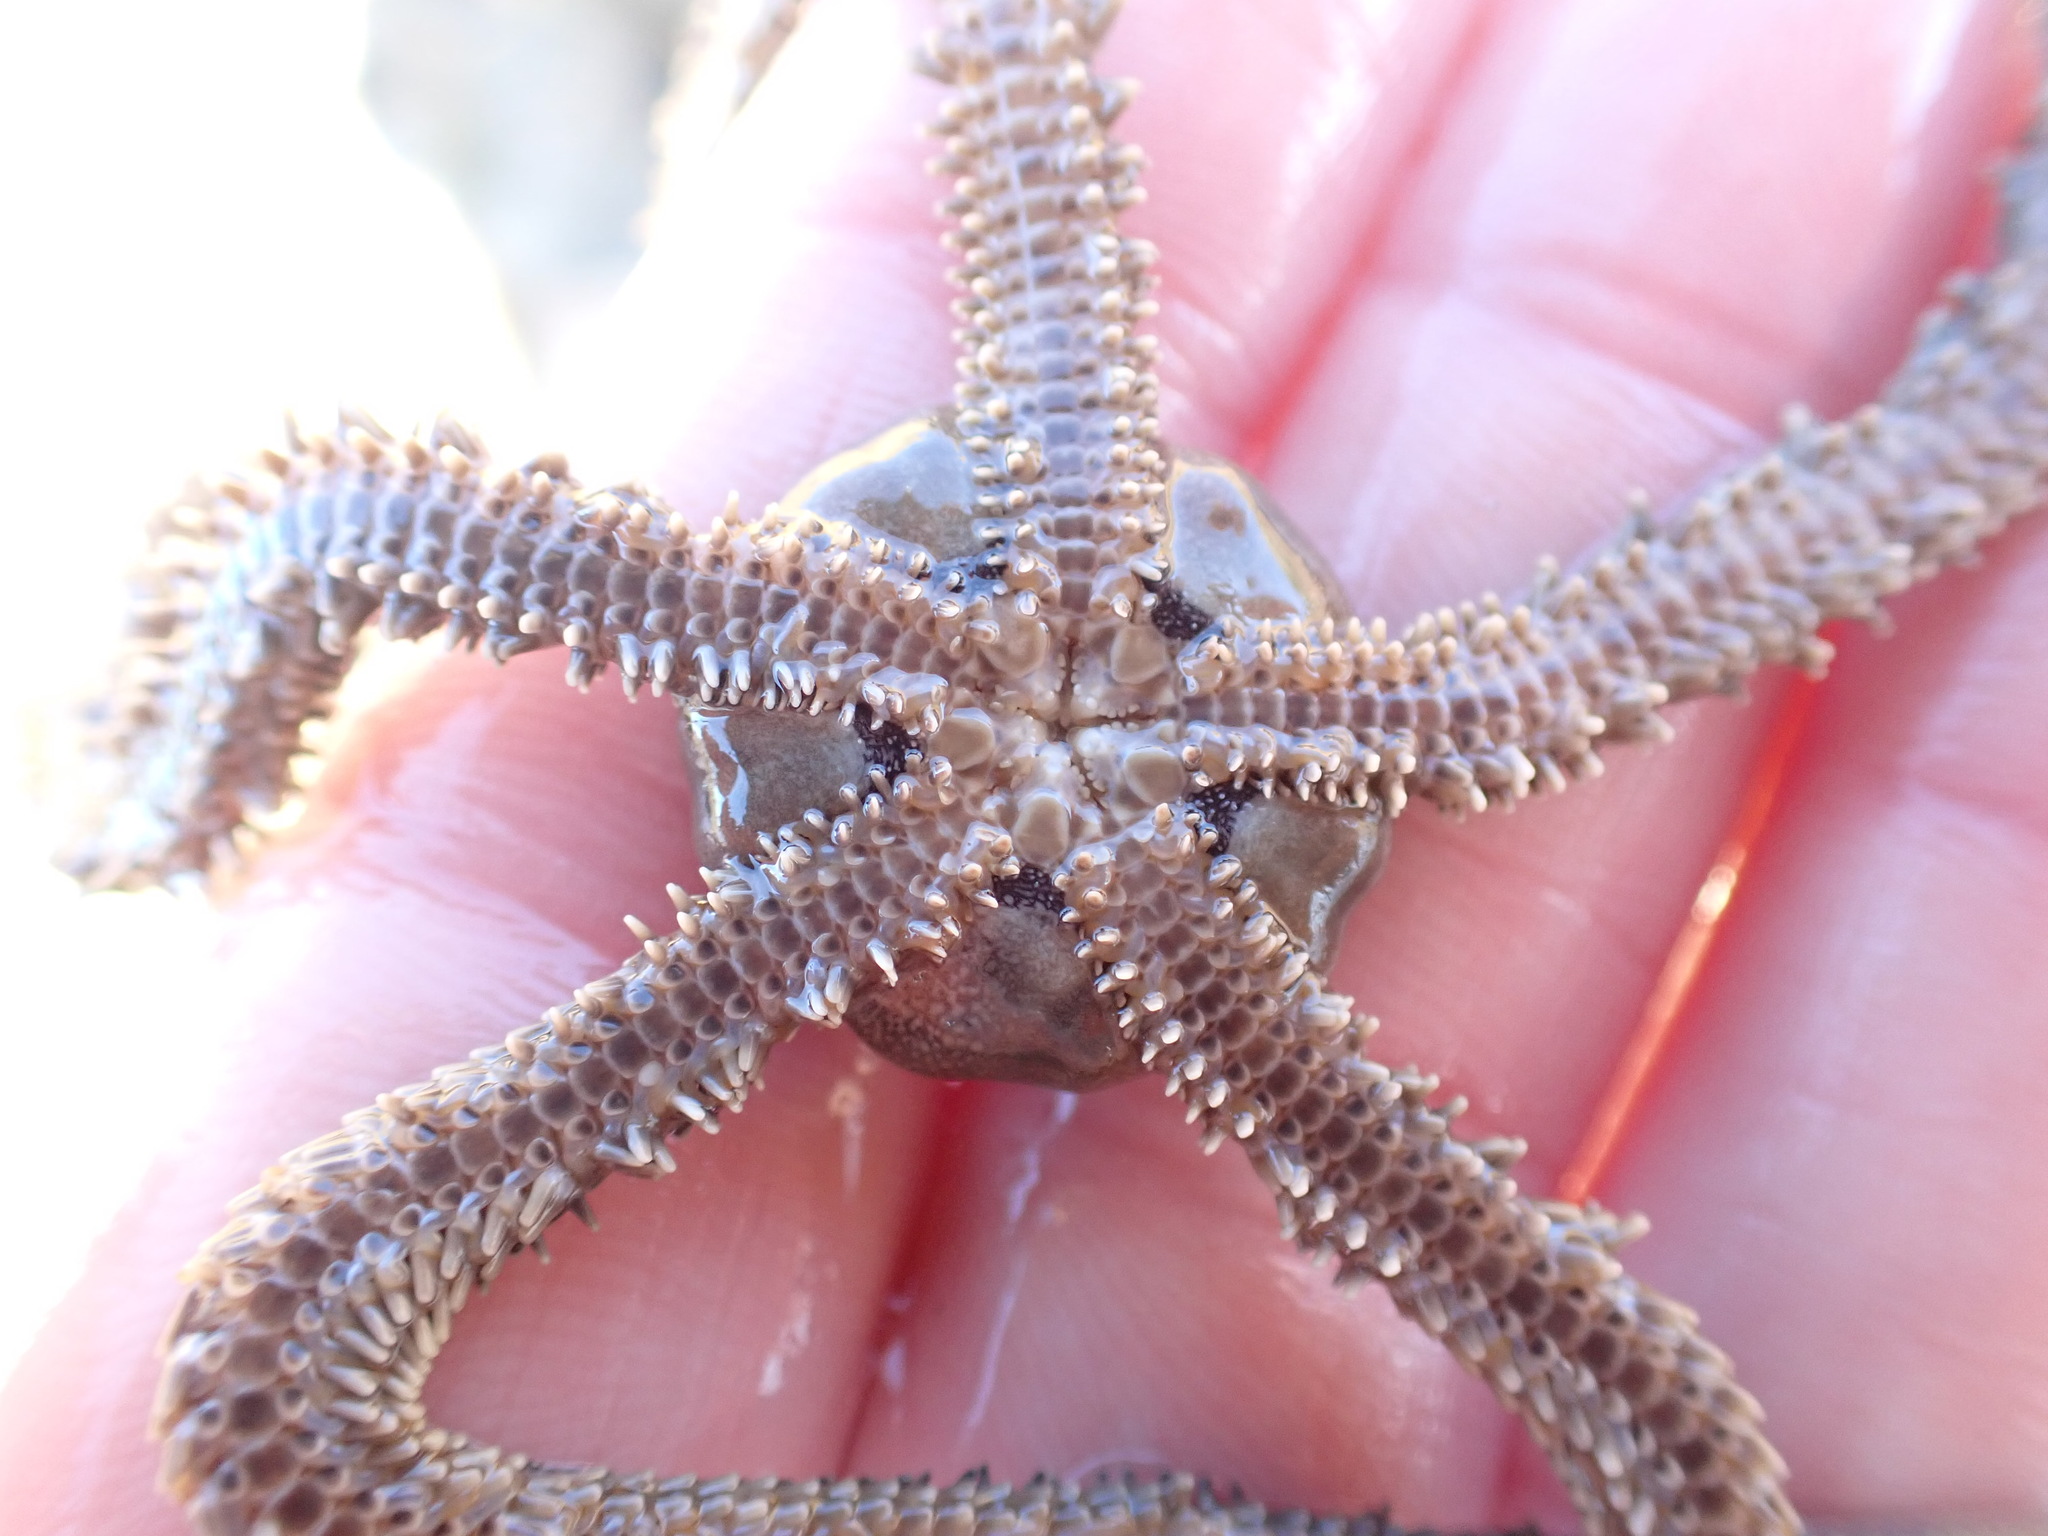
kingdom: Animalia
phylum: Echinodermata
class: Ophiuroidea
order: Amphilepidida
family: Ophionereididae
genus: Ophionereis
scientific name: Ophionereis fasciata
